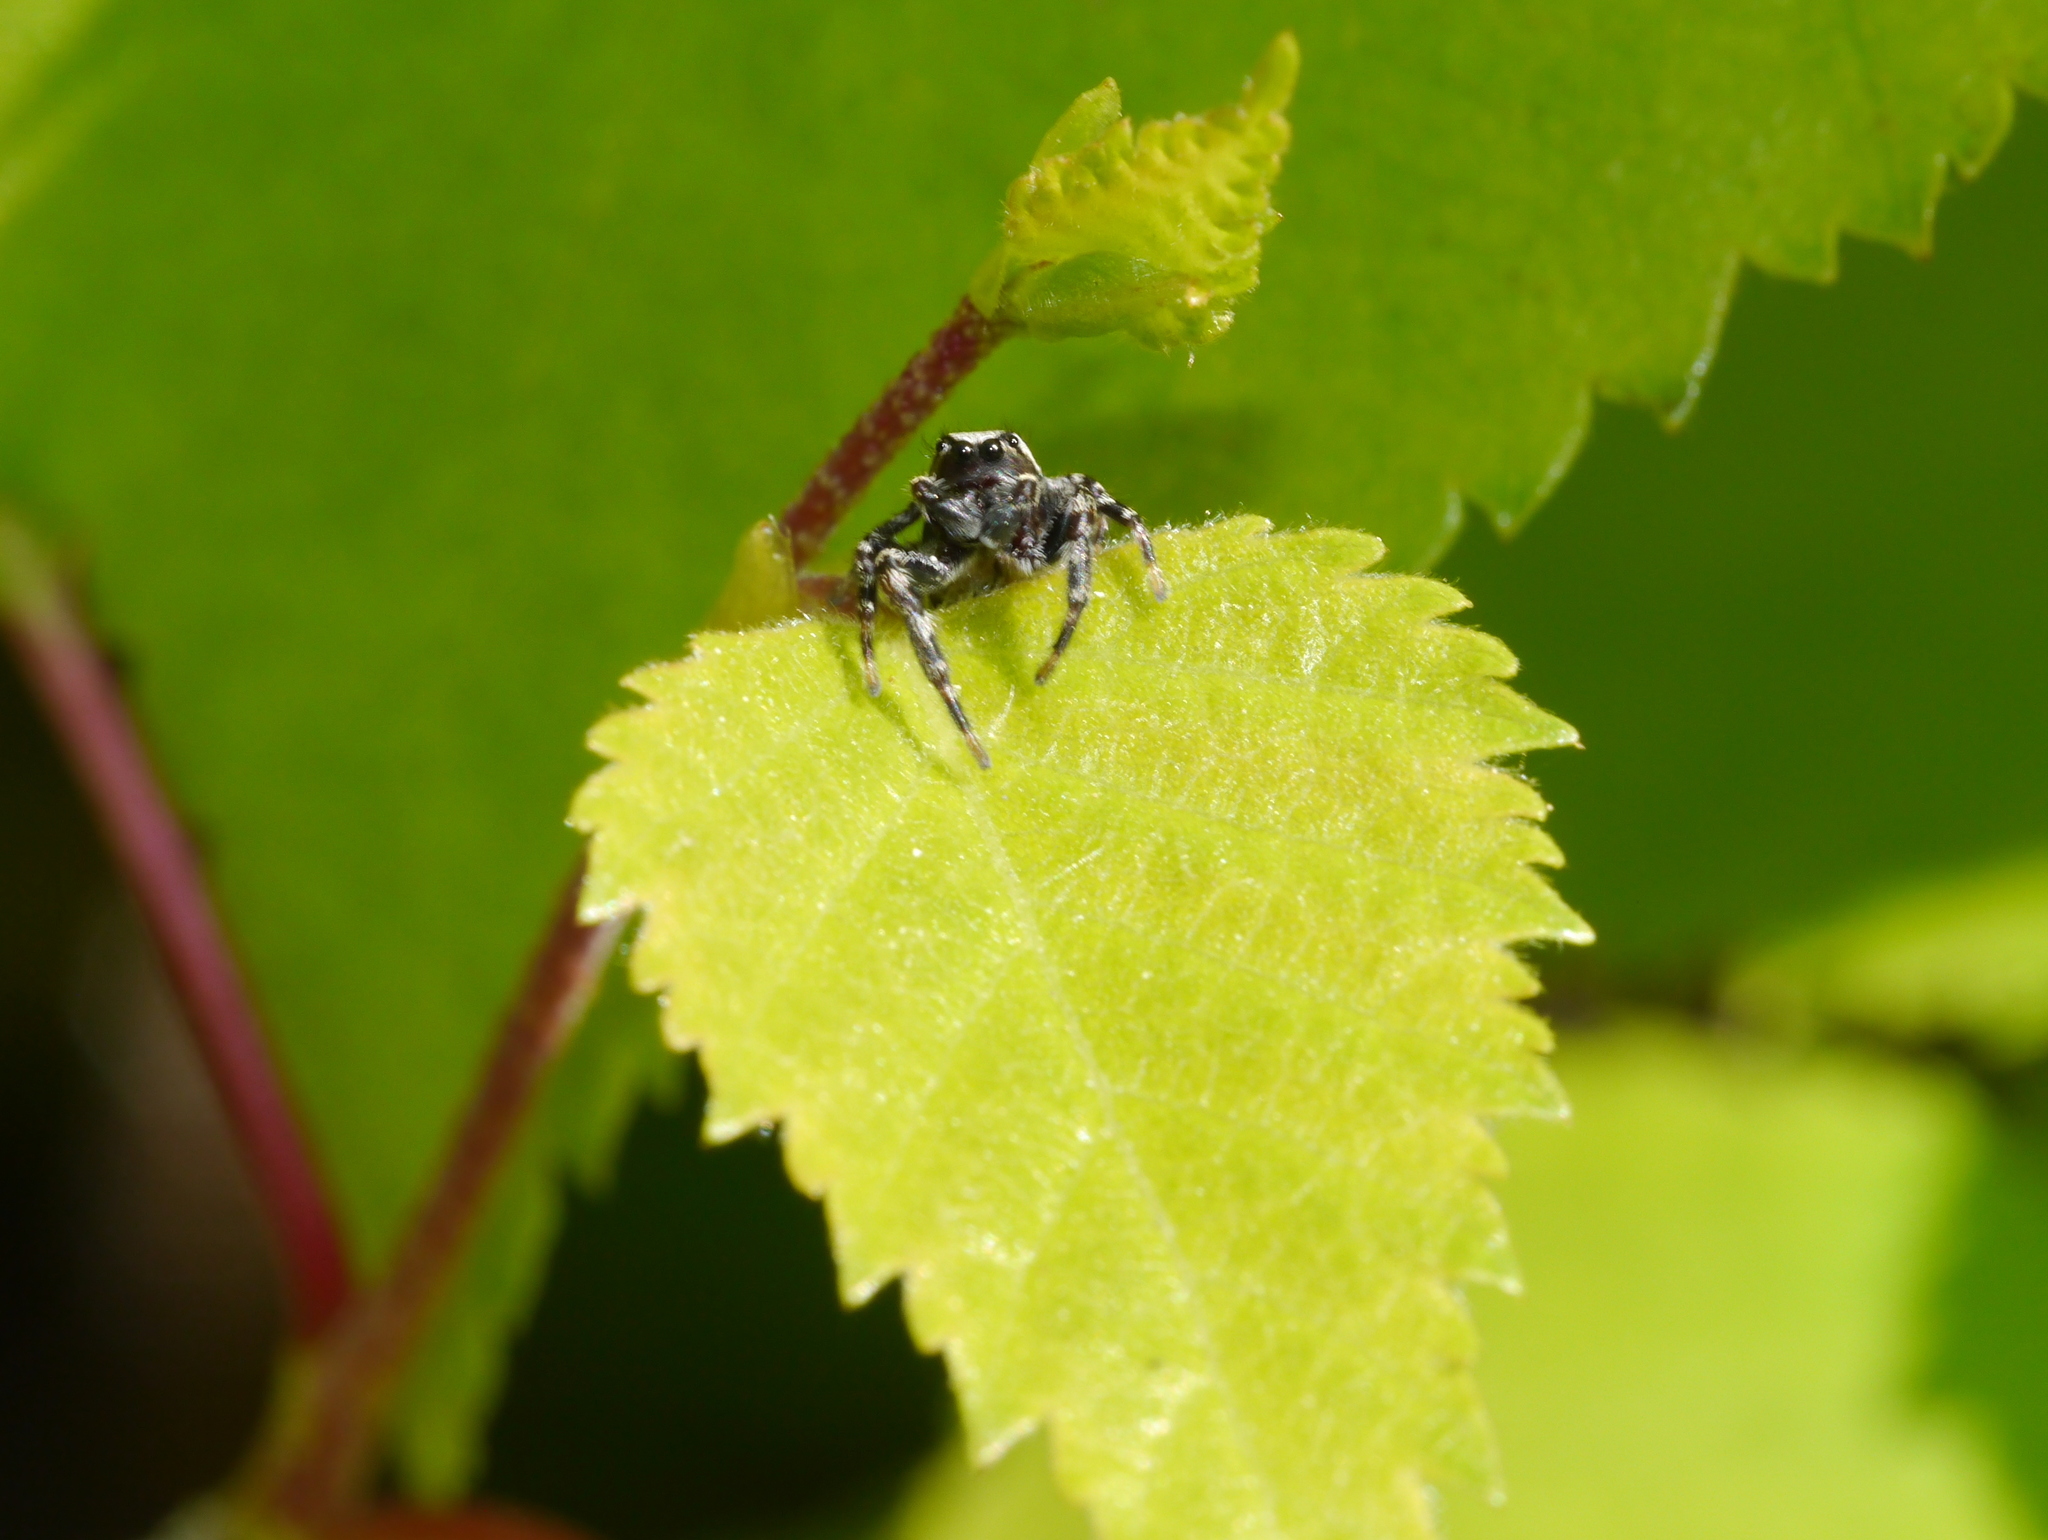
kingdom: Animalia
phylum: Arthropoda
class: Arachnida
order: Araneae
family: Salticidae
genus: Pelegrina
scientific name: Pelegrina montana
